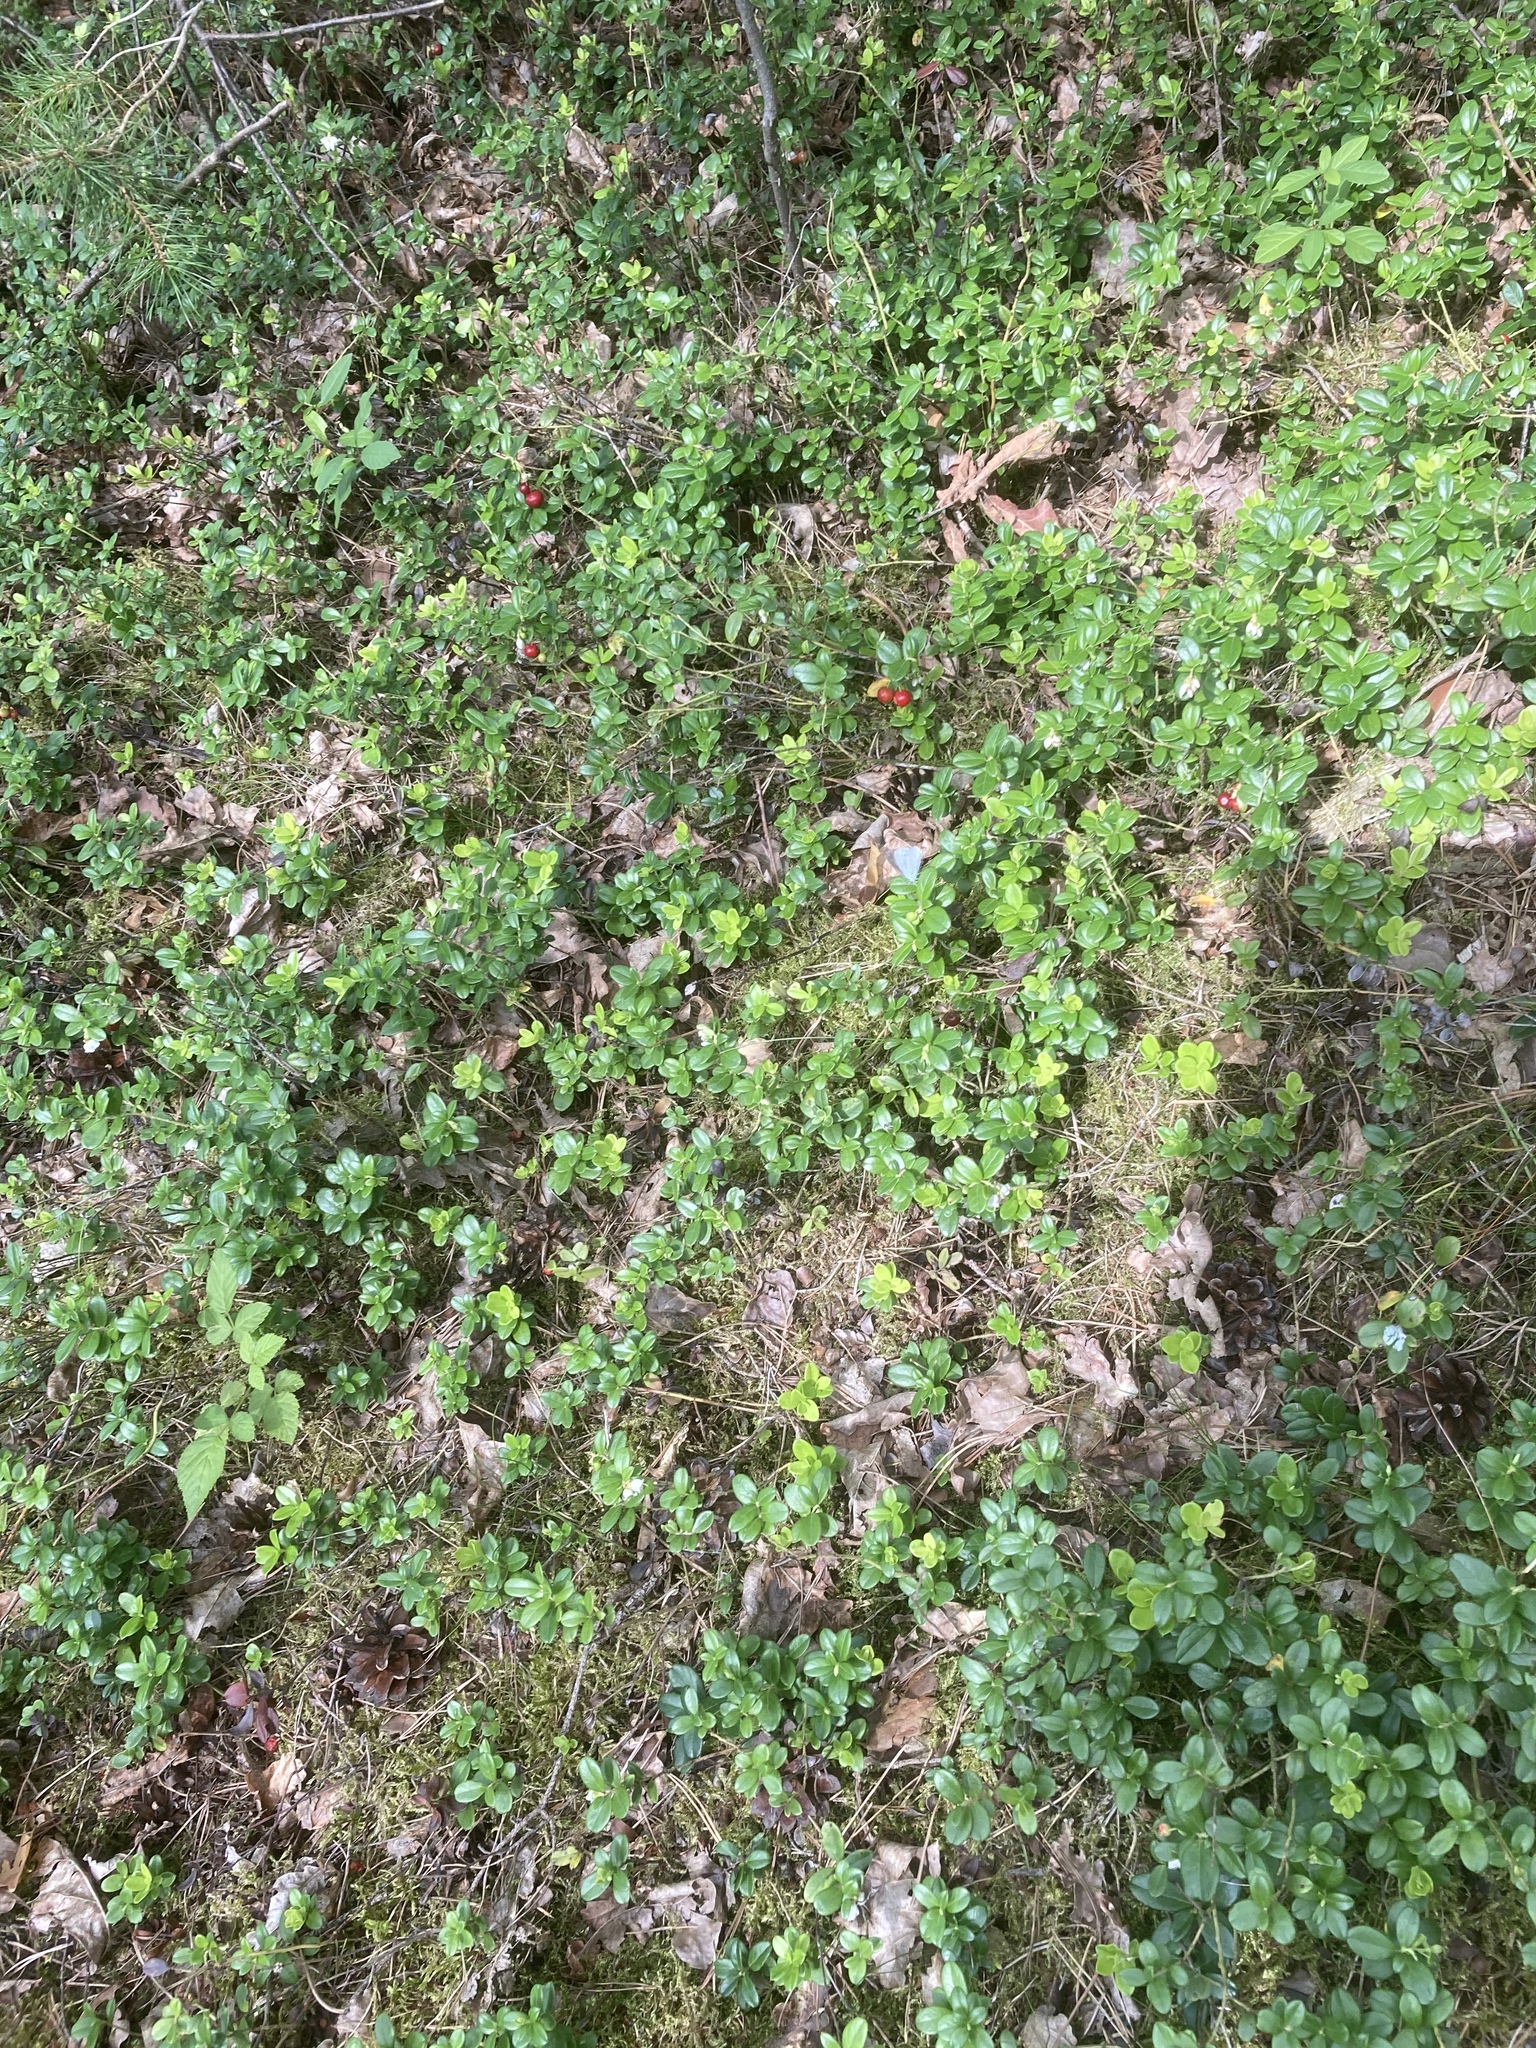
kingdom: Plantae
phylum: Tracheophyta
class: Magnoliopsida
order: Ericales
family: Ericaceae
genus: Vaccinium
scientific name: Vaccinium vitis-idaea
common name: Cowberry
